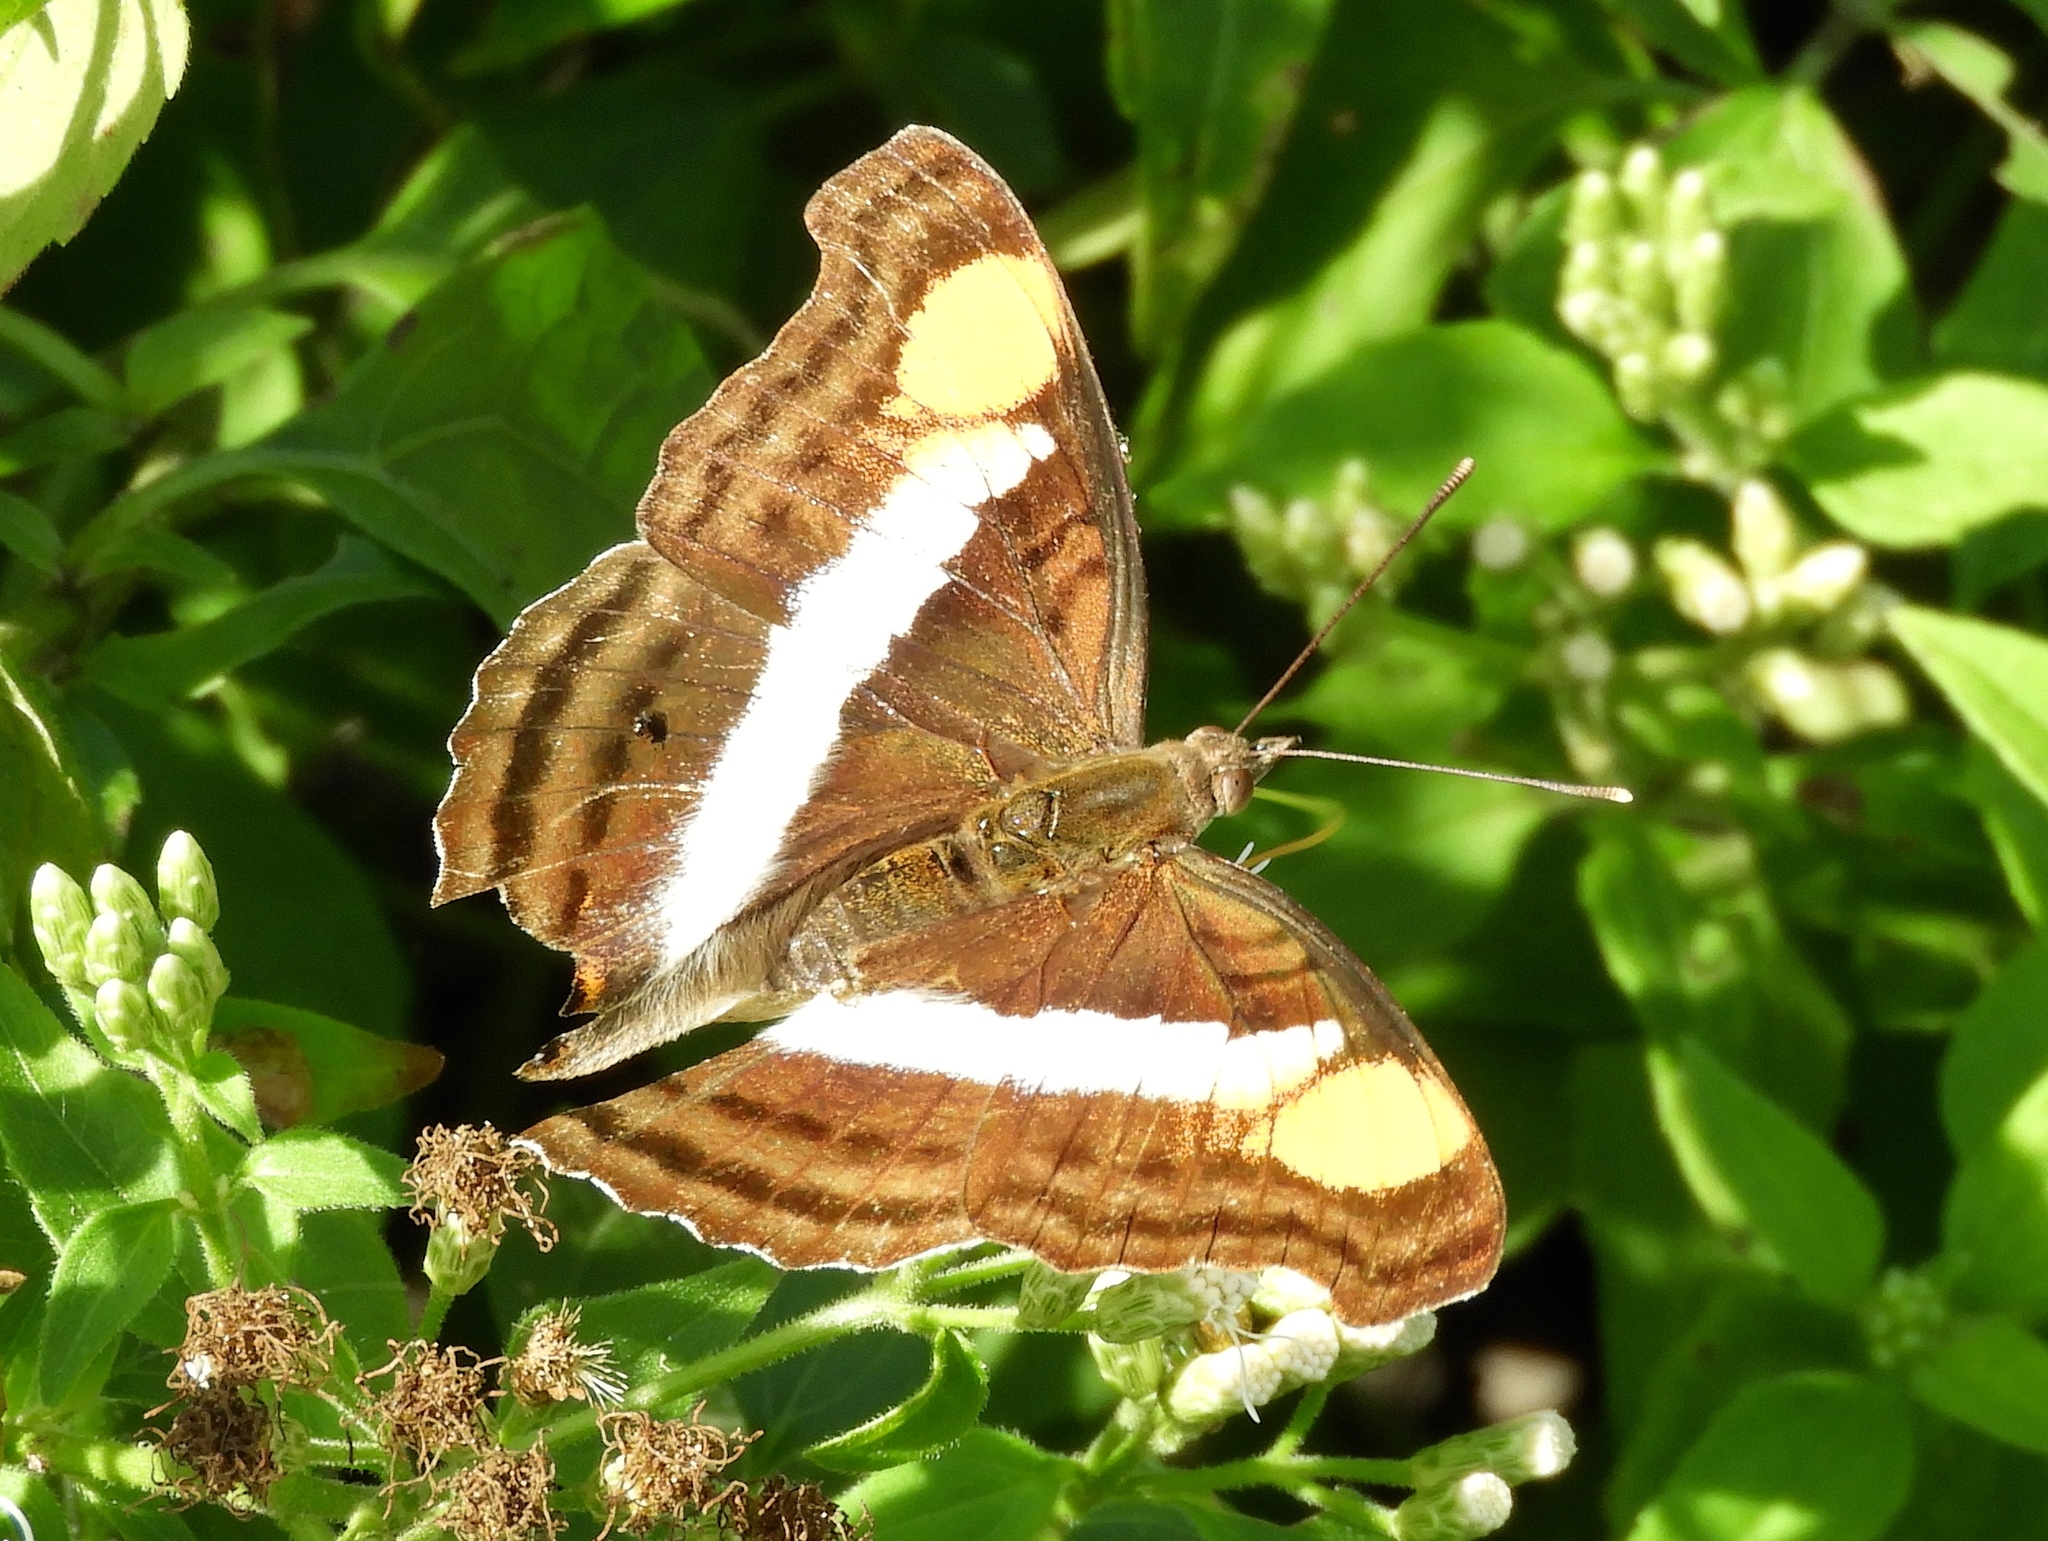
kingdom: Animalia
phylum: Arthropoda
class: Insecta
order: Lepidoptera
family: Nymphalidae
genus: Doxocopa
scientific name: Doxocopa laure
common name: Silver emperor
